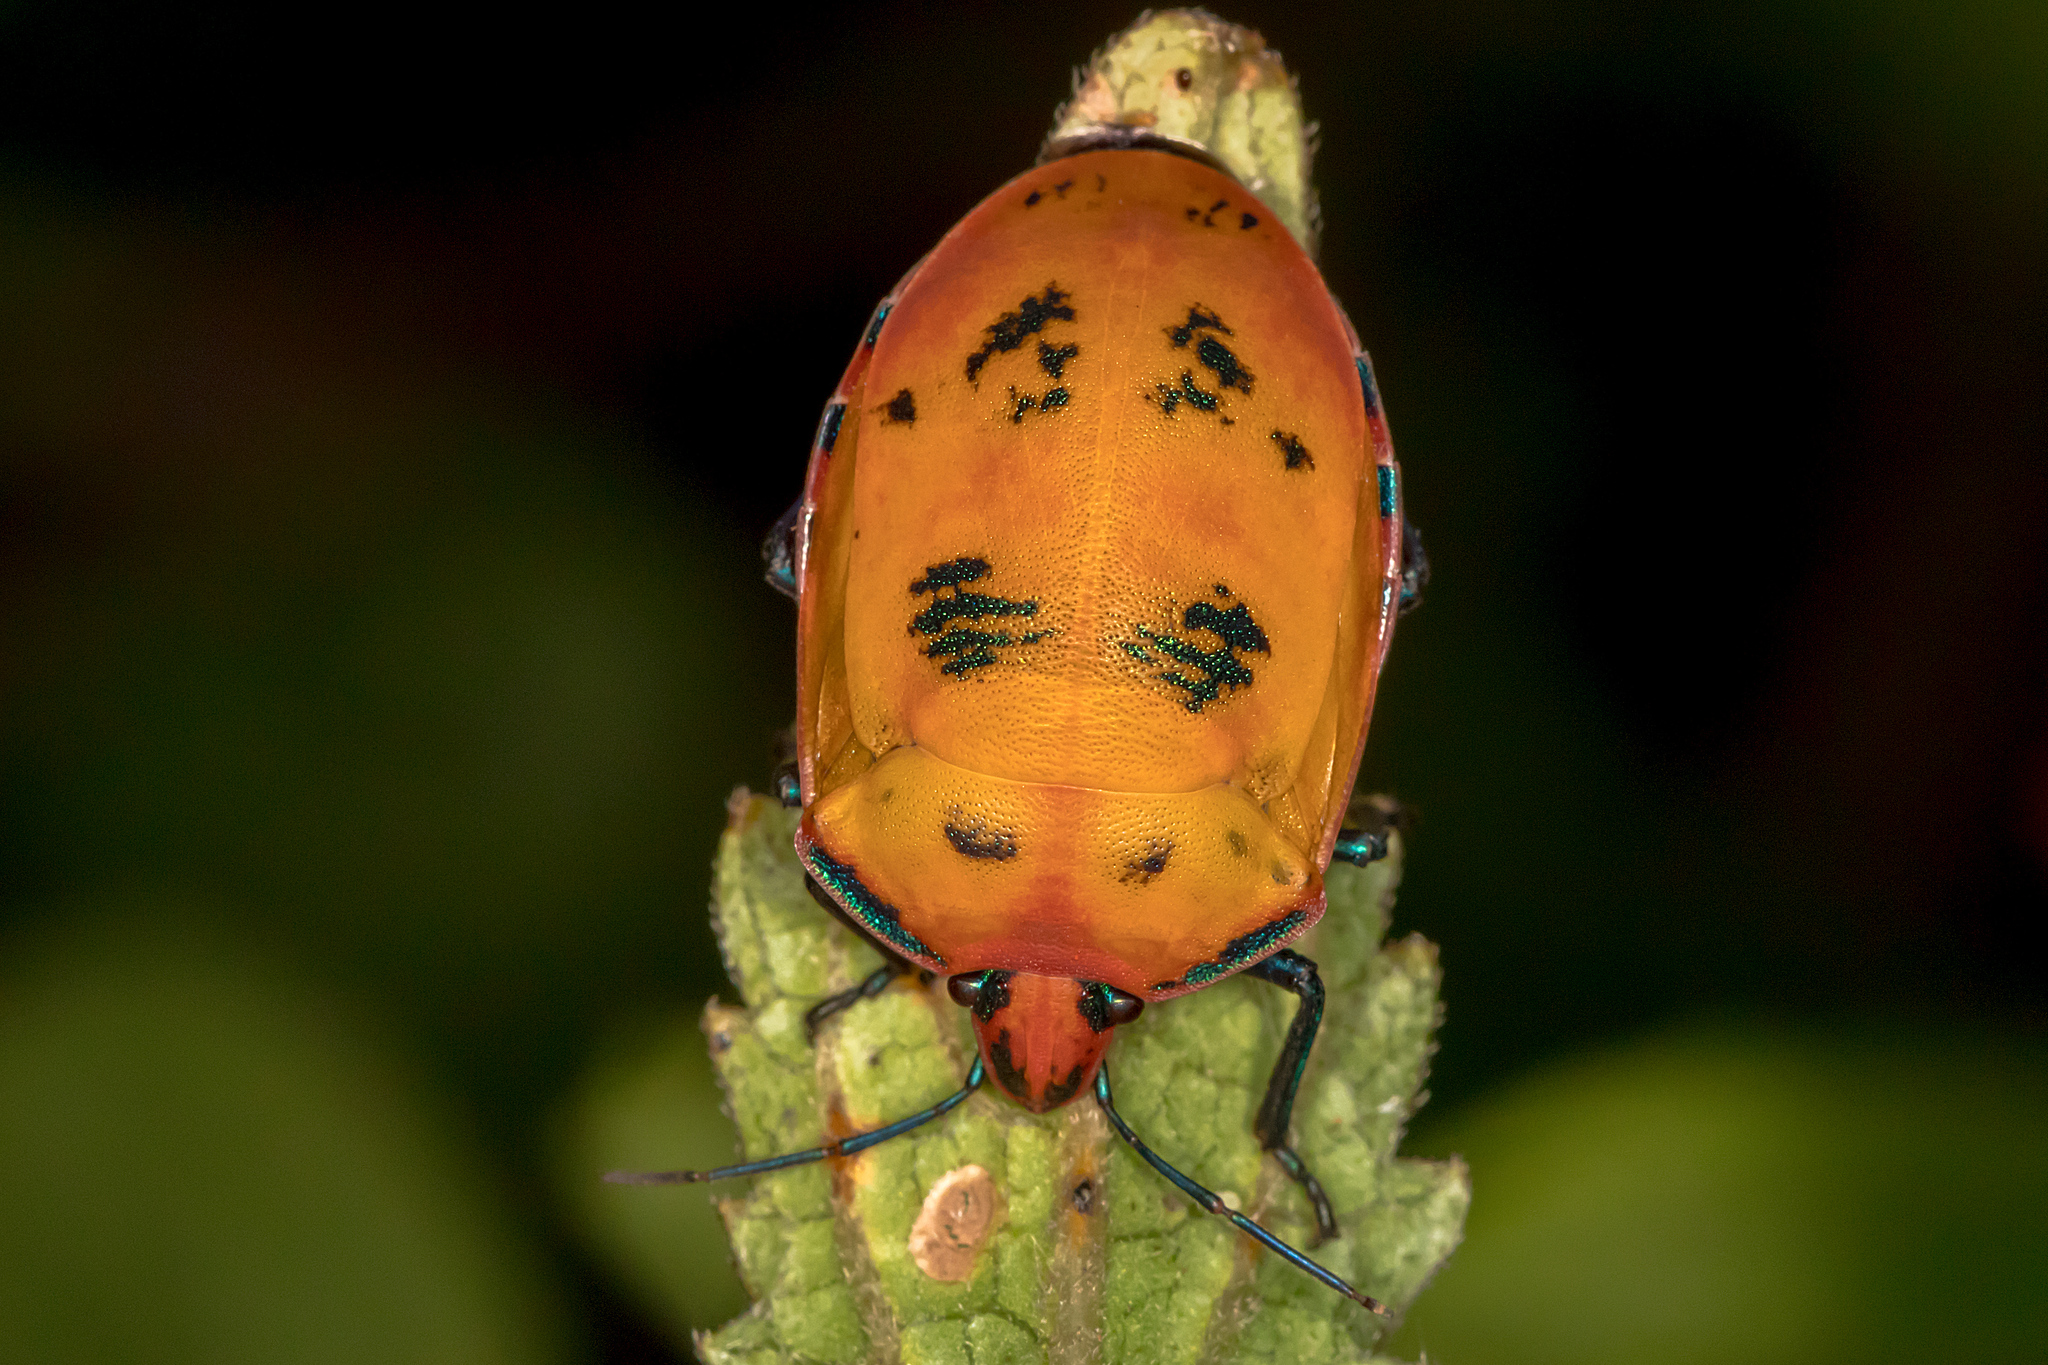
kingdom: Animalia
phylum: Arthropoda
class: Insecta
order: Hemiptera
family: Scutelleridae
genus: Tectocoris
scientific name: Tectocoris diophthalmus
